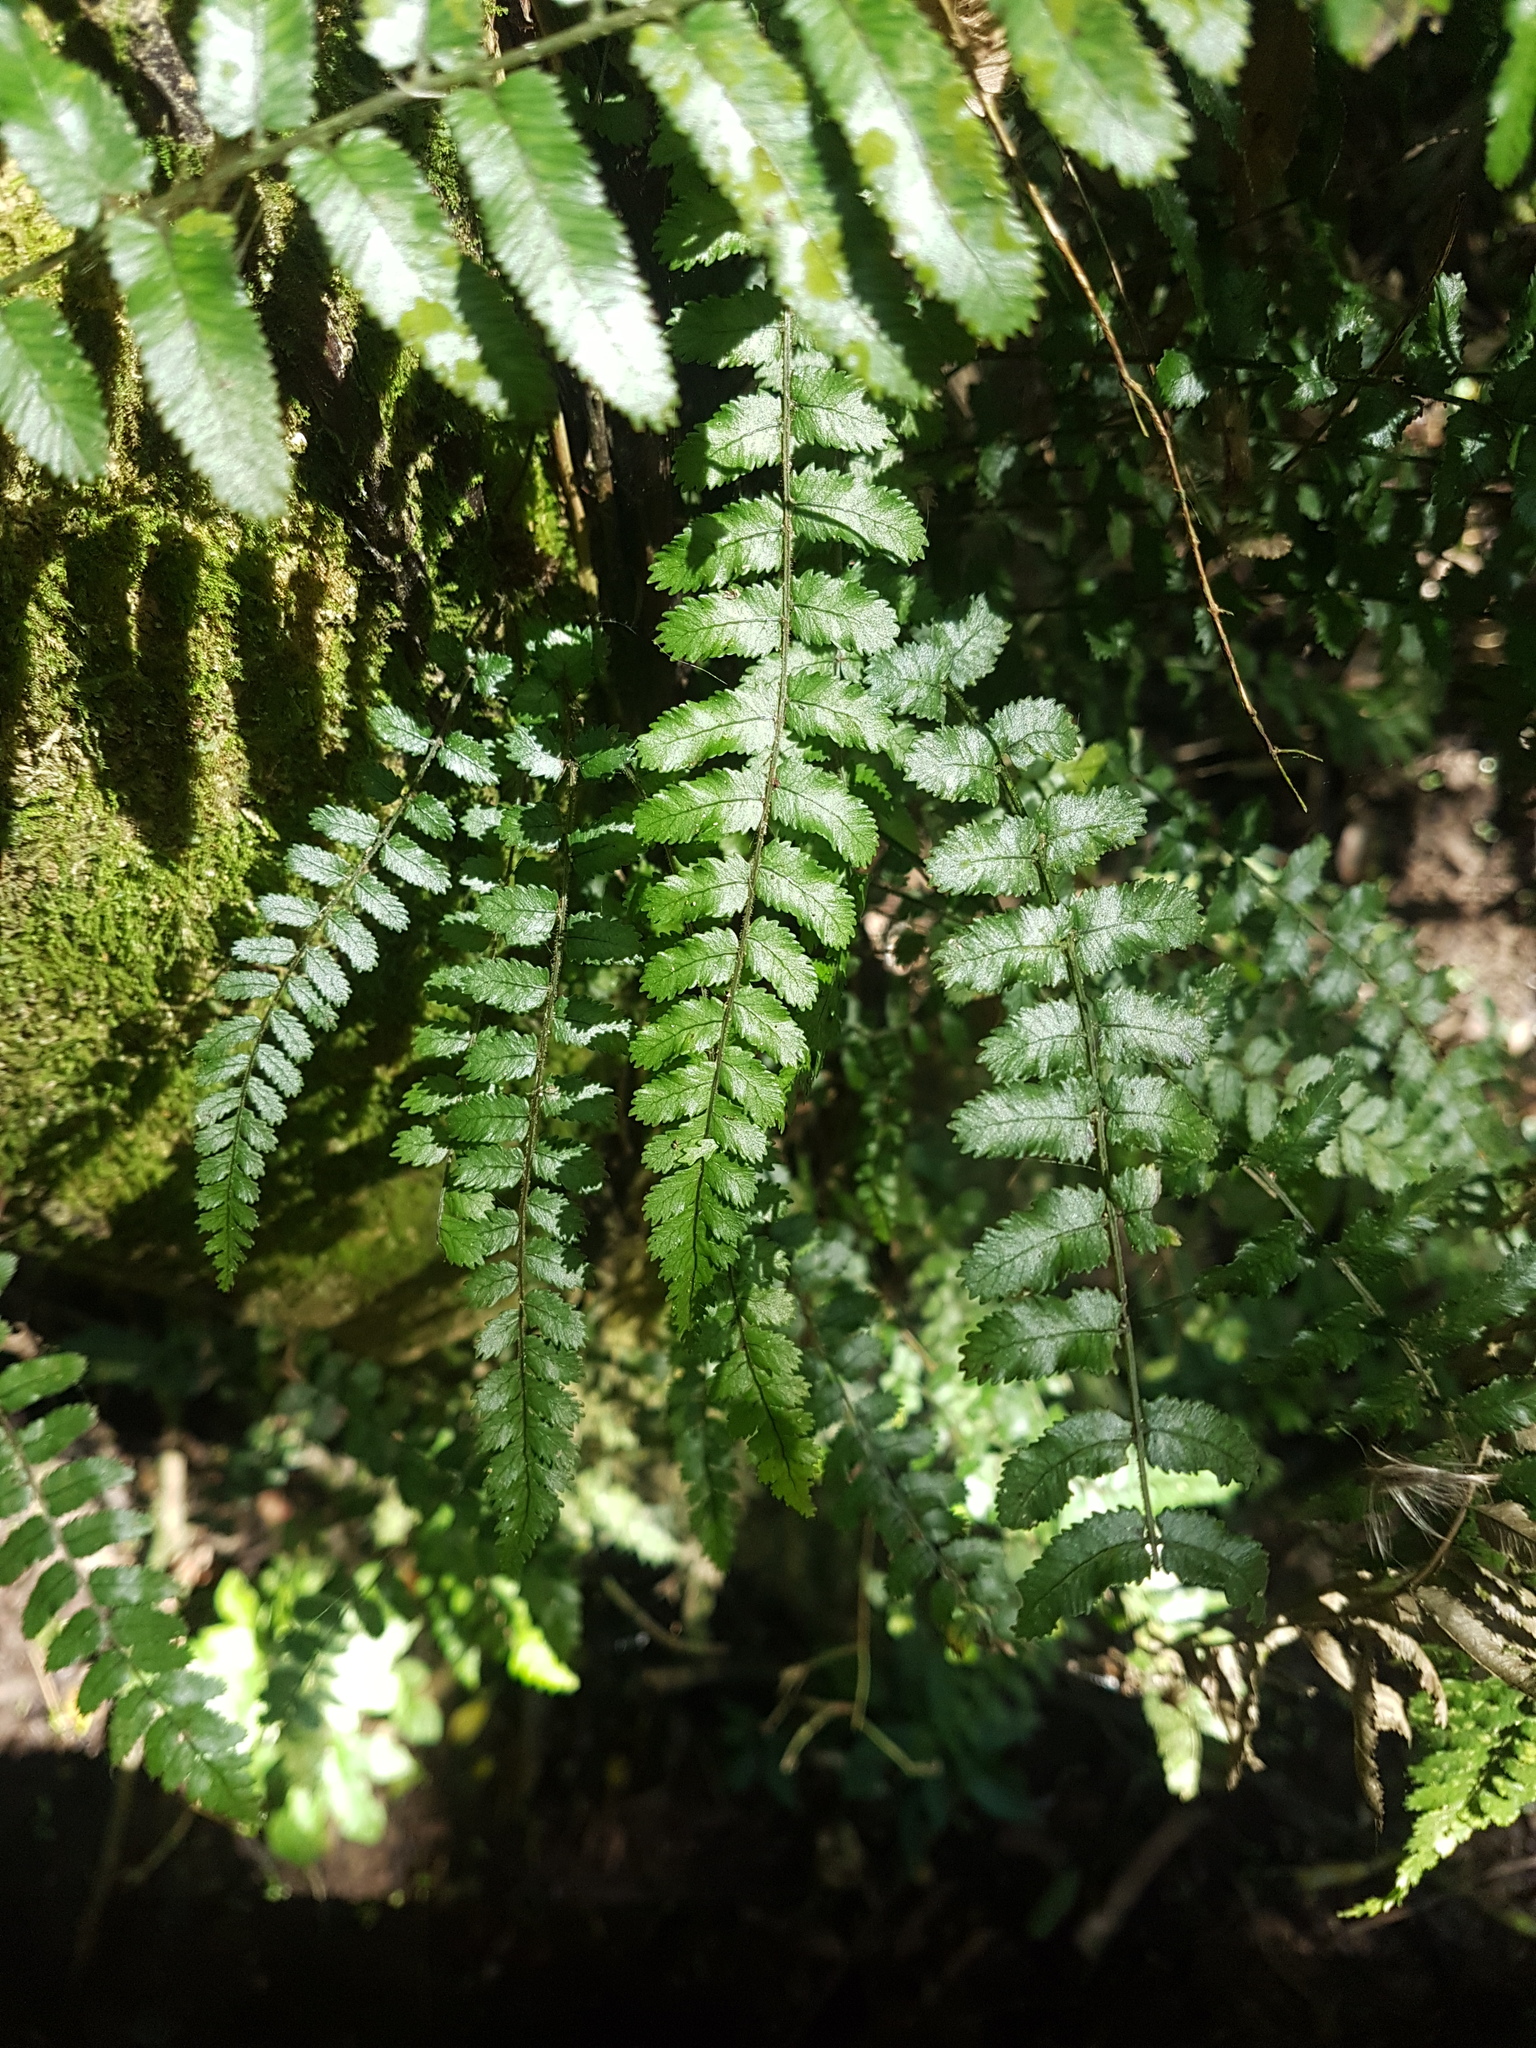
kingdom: Plantae
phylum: Tracheophyta
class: Polypodiopsida
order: Polypodiales
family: Blechnaceae
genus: Icarus
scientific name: Icarus filiformis
